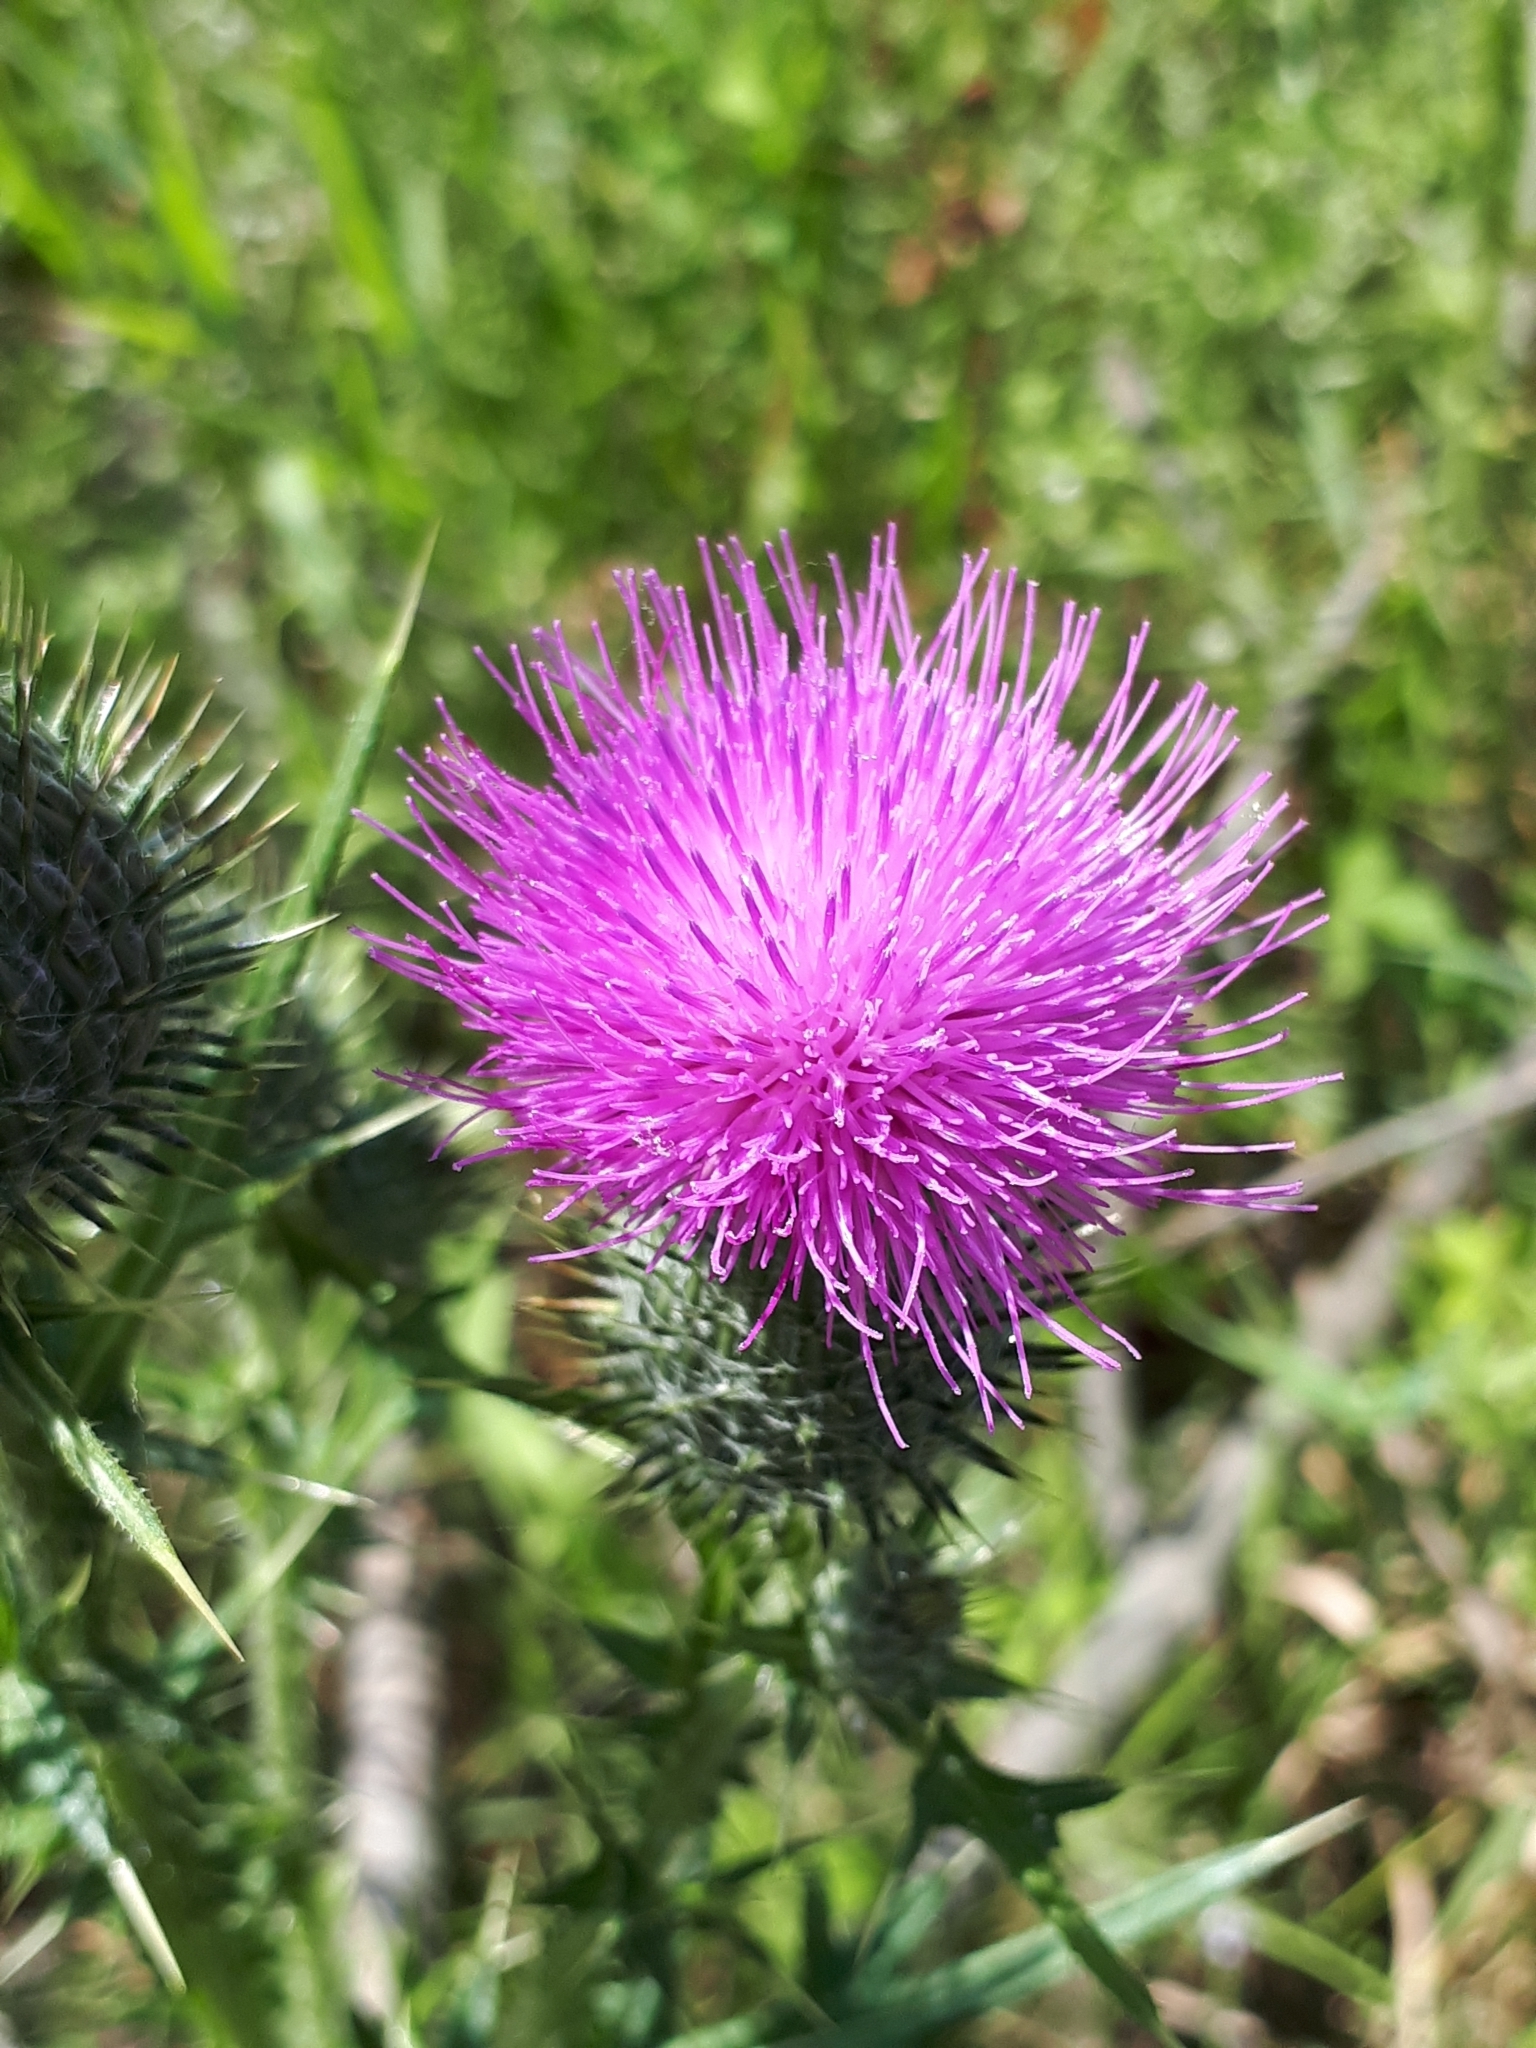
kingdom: Plantae
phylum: Tracheophyta
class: Magnoliopsida
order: Asterales
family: Asteraceae
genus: Cirsium
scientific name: Cirsium vulgare
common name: Bull thistle
